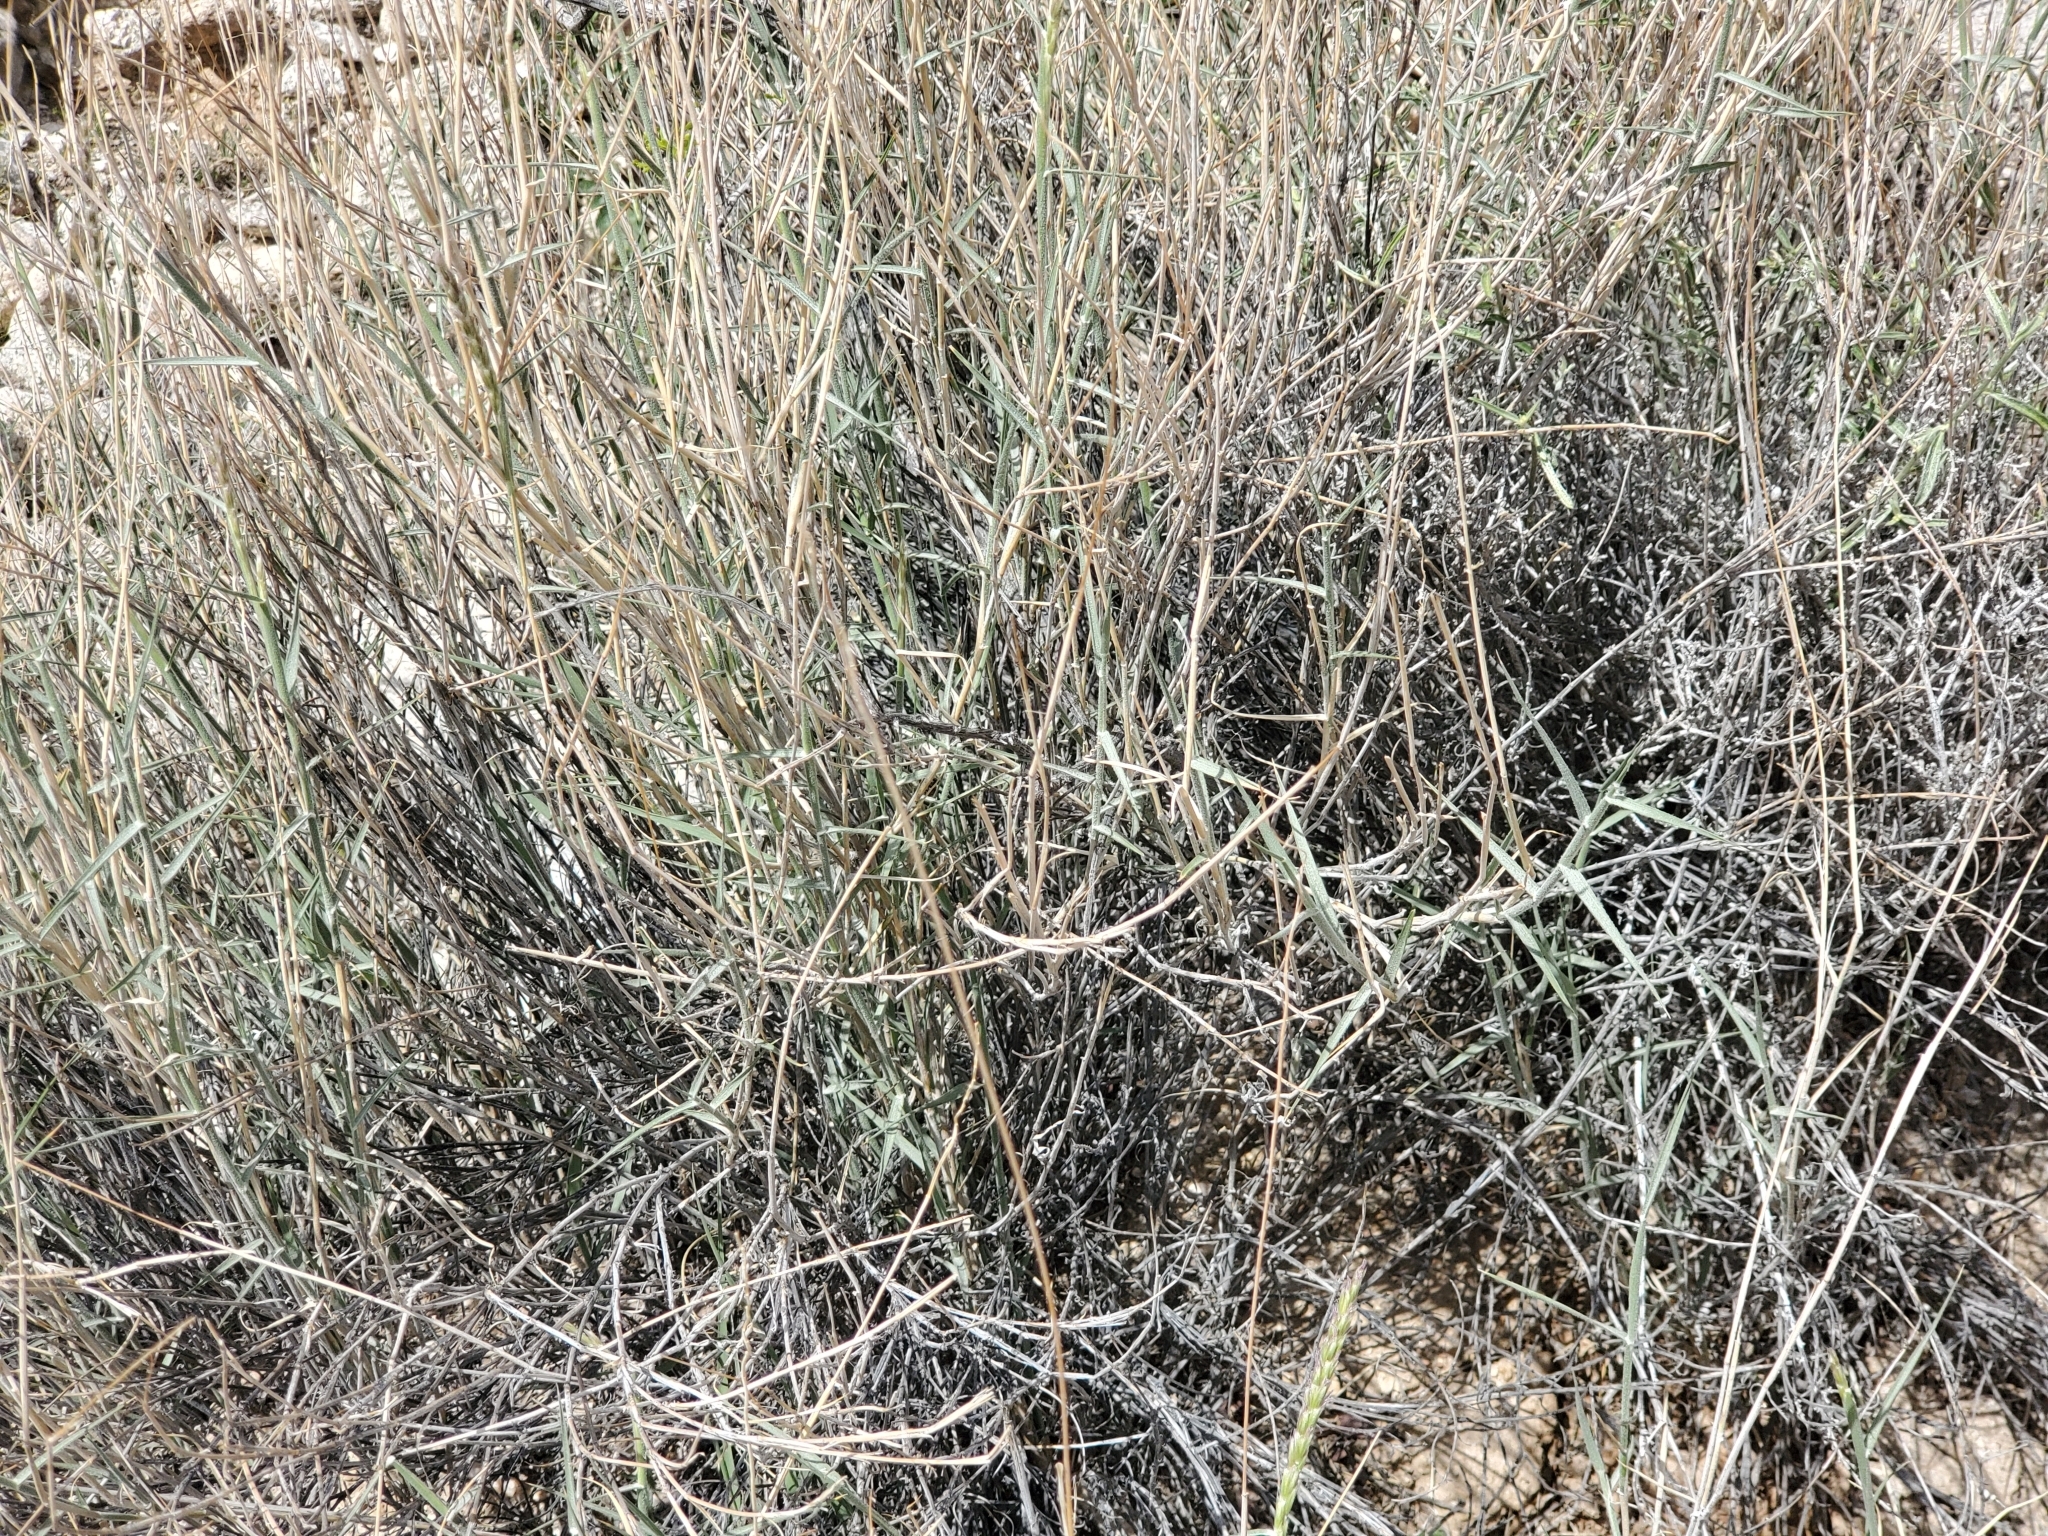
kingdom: Plantae
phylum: Tracheophyta
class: Liliopsida
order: Poales
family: Poaceae
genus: Hilaria
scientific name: Hilaria rigida
